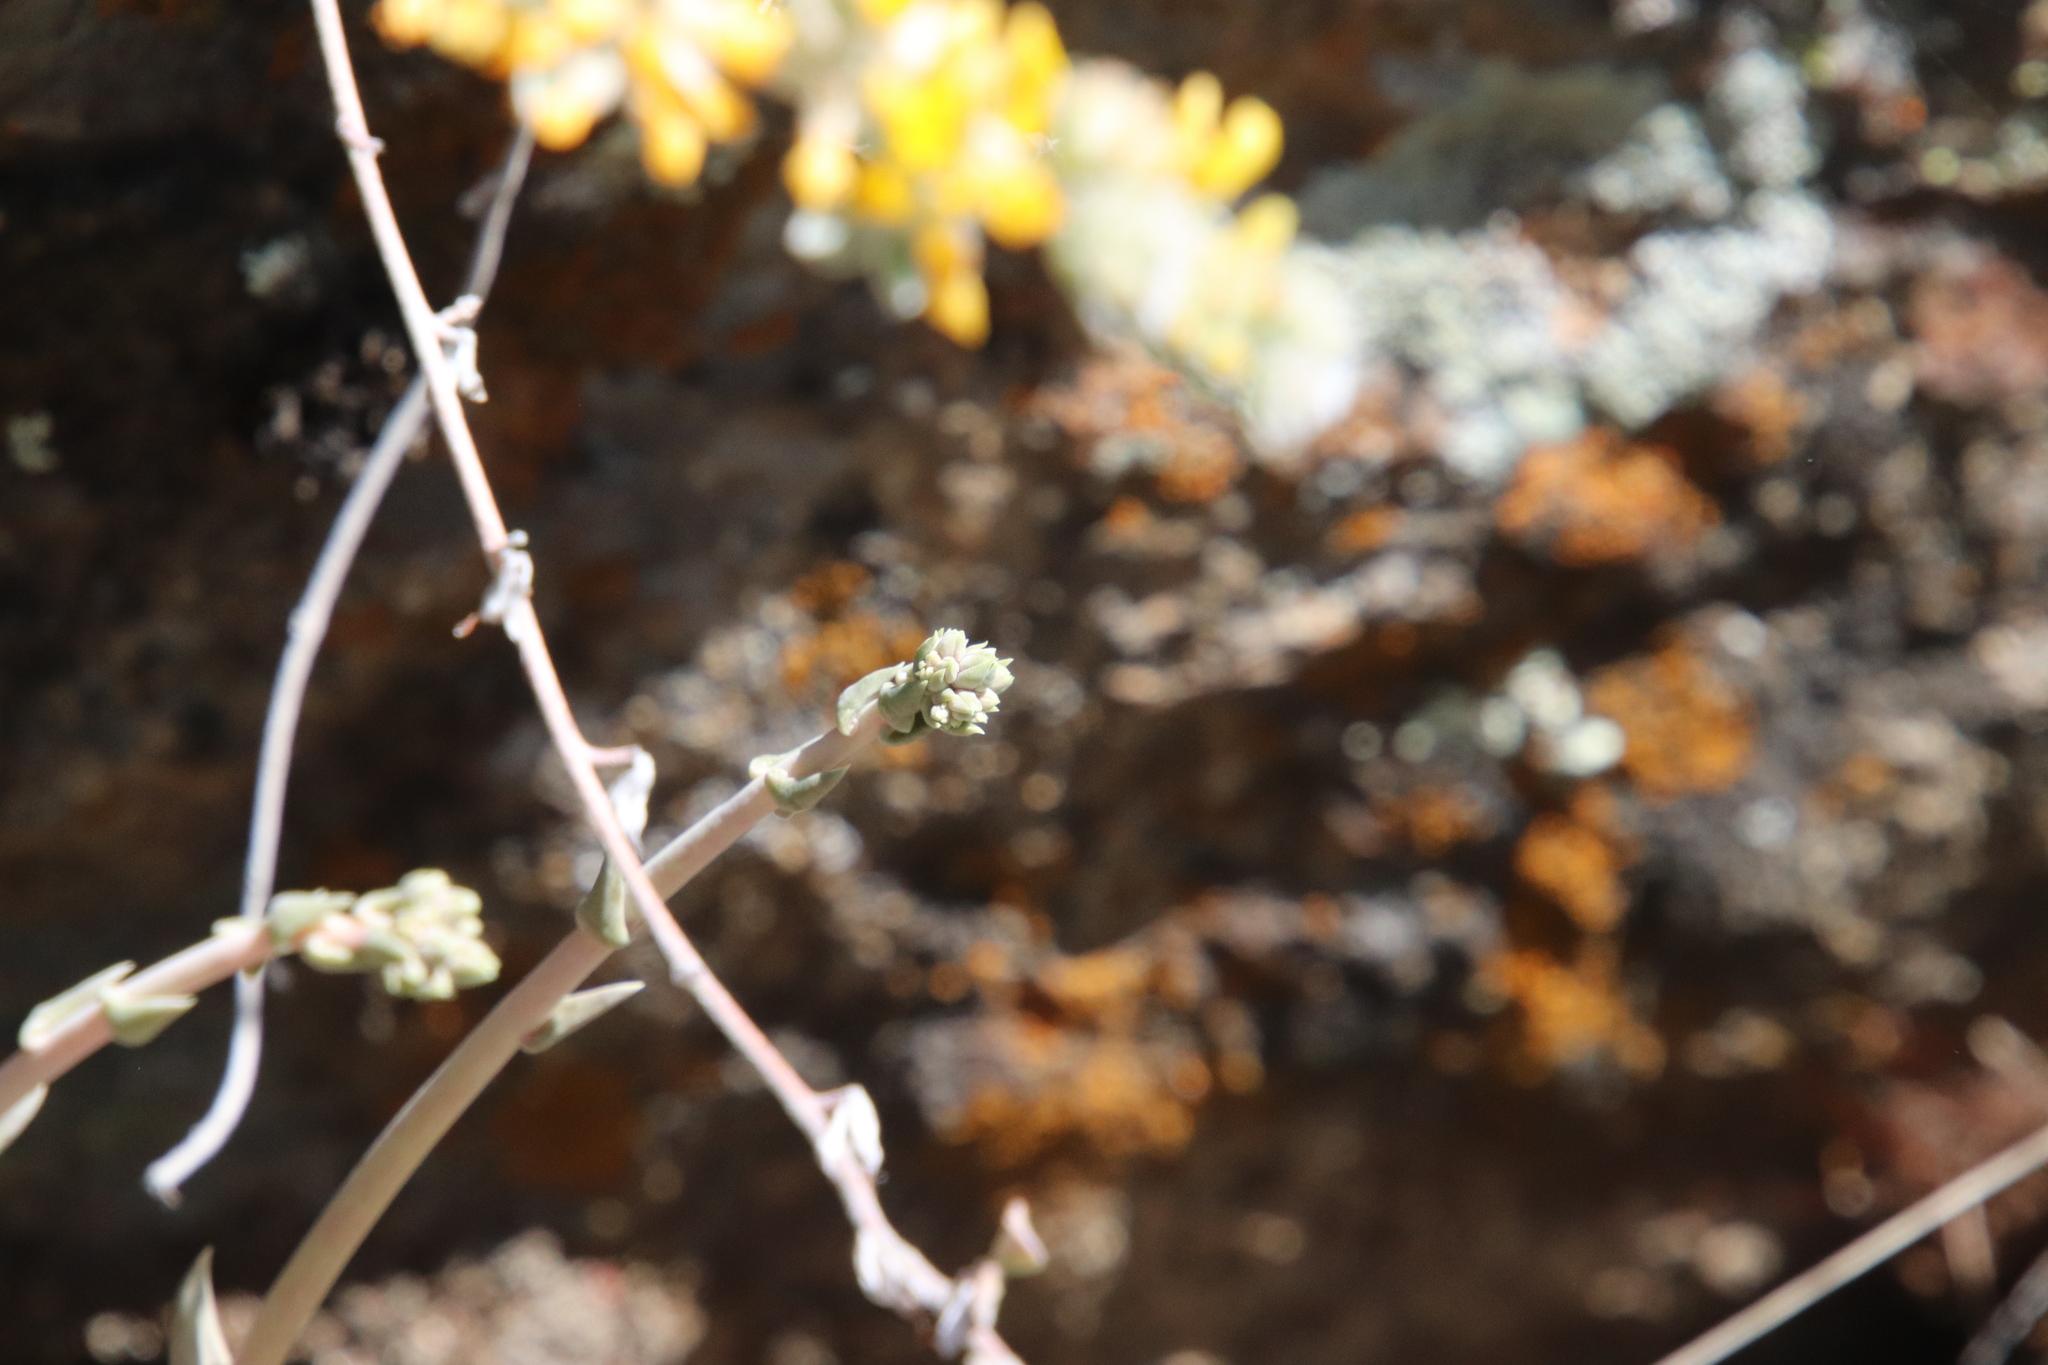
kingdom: Plantae
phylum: Tracheophyta
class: Magnoliopsida
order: Saxifragales
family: Crassulaceae
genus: Dudleya
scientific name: Dudleya saxosa
